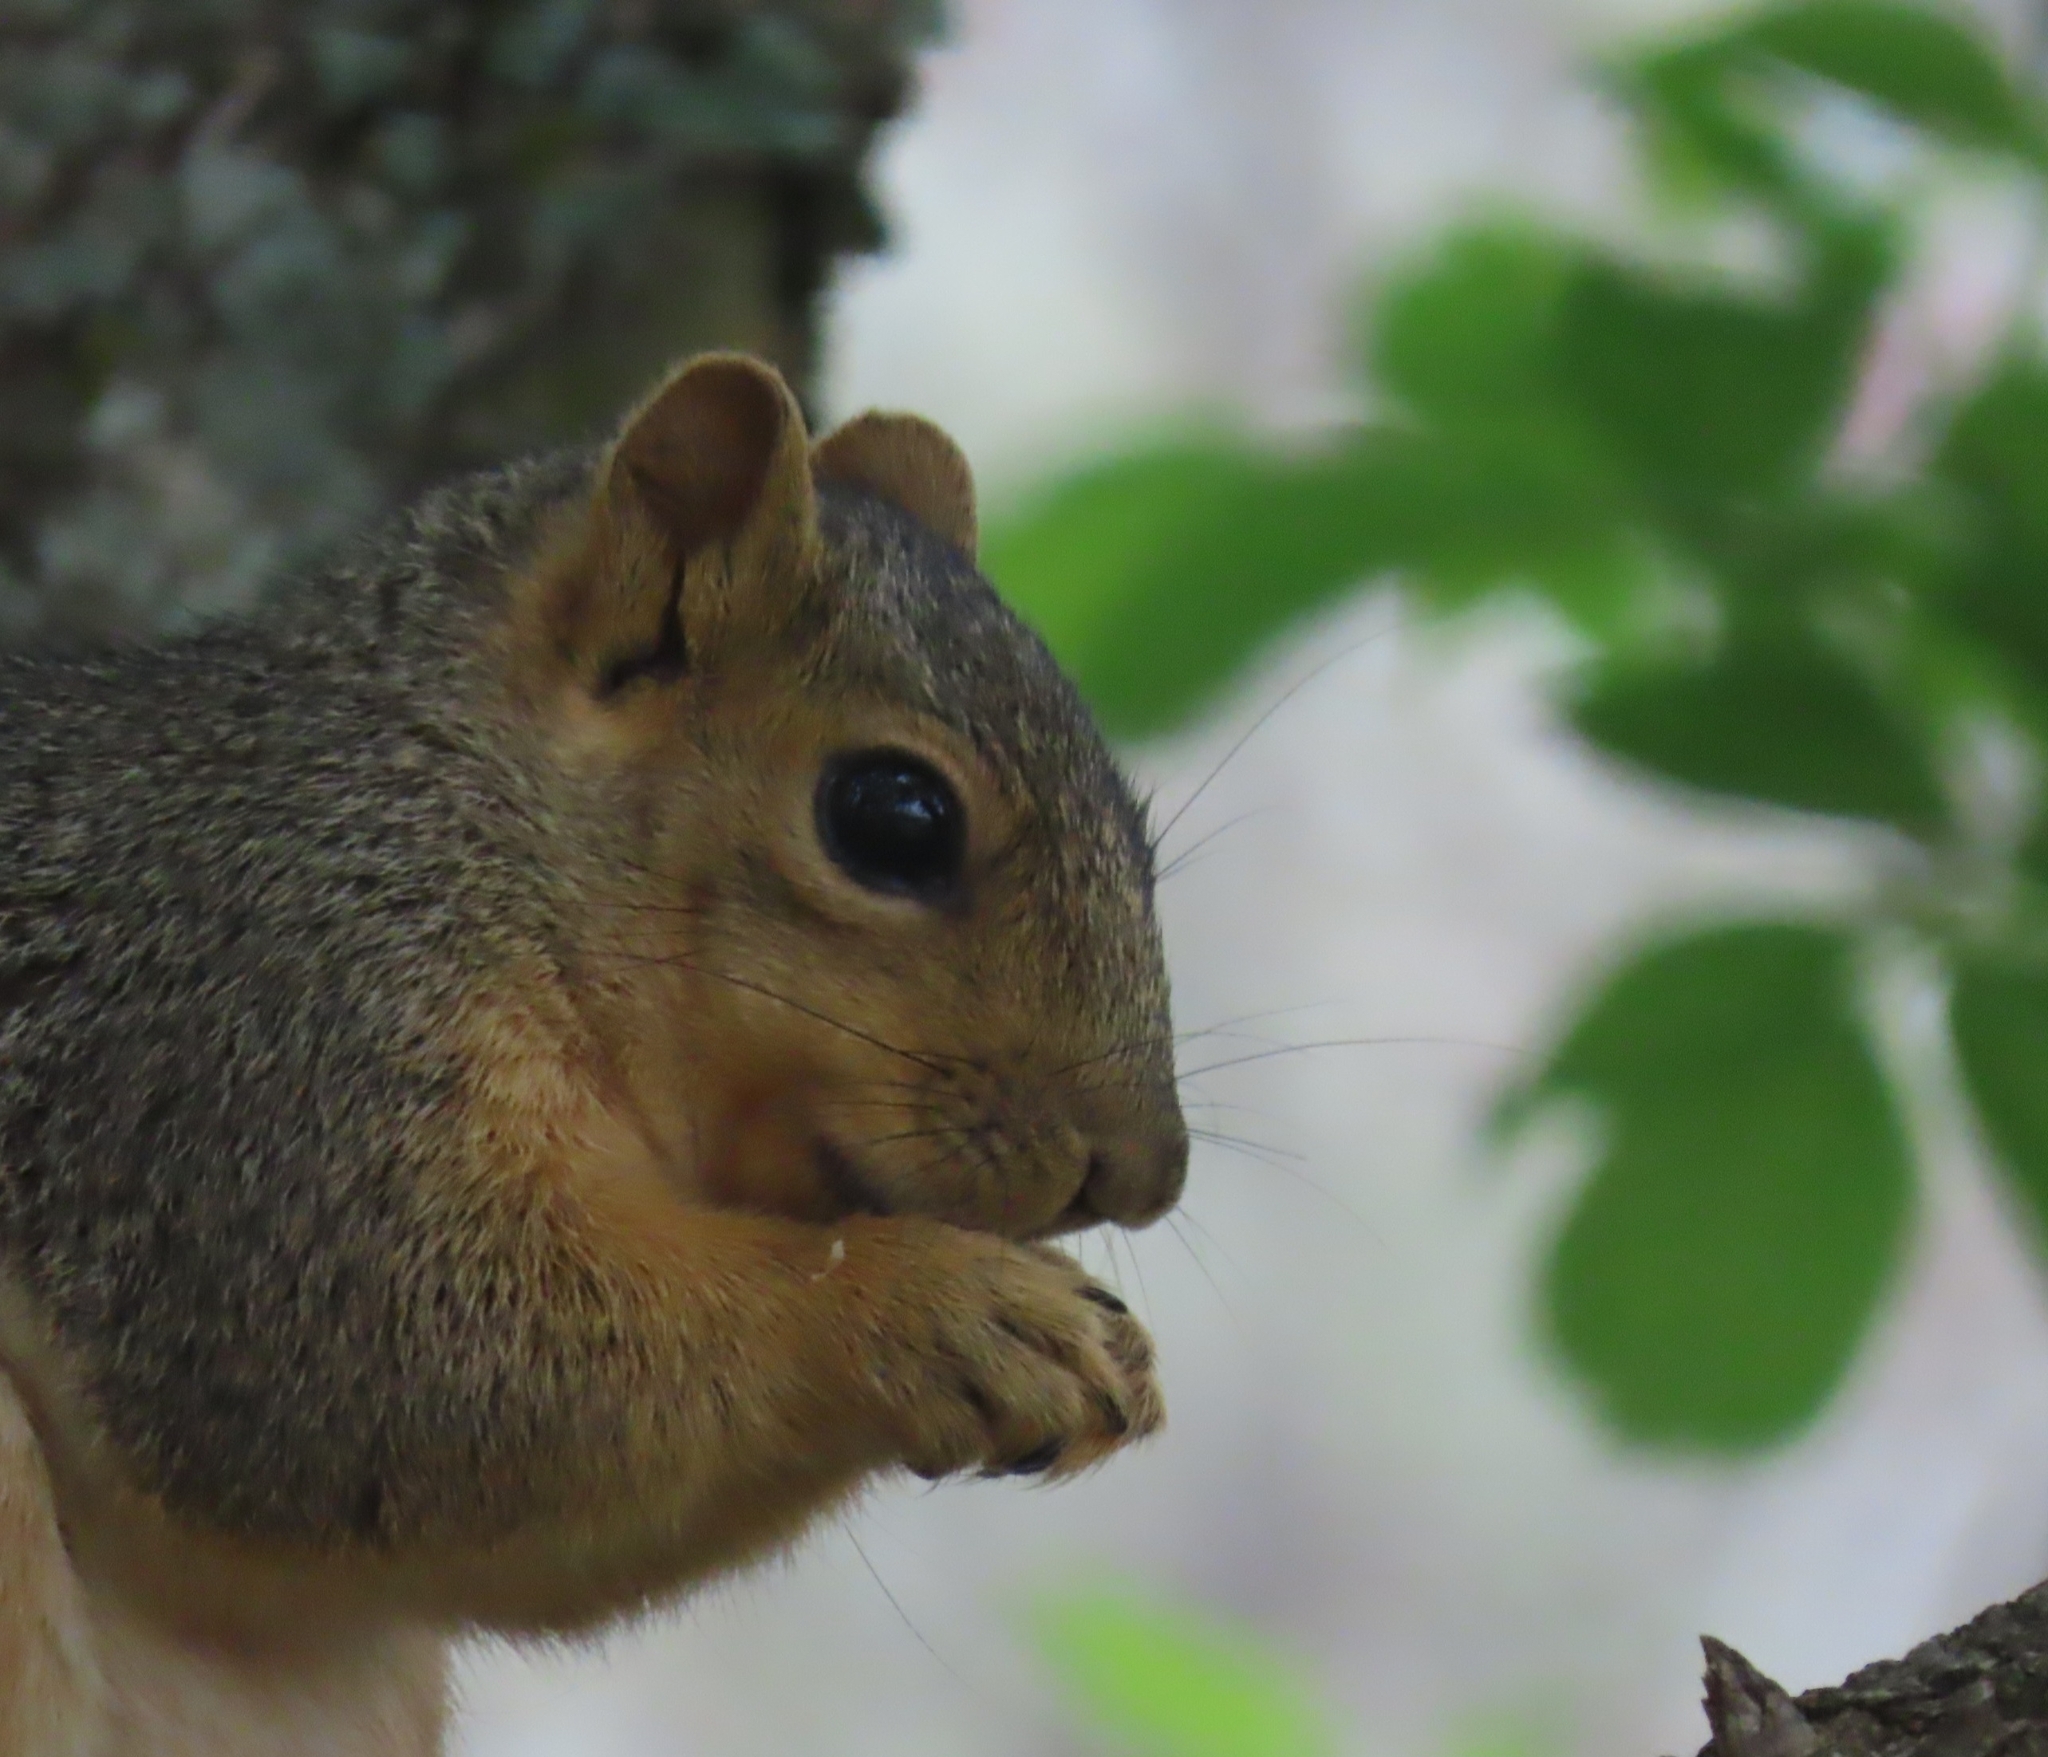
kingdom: Animalia
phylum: Chordata
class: Mammalia
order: Rodentia
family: Sciuridae
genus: Sciurus
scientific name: Sciurus niger
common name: Fox squirrel
